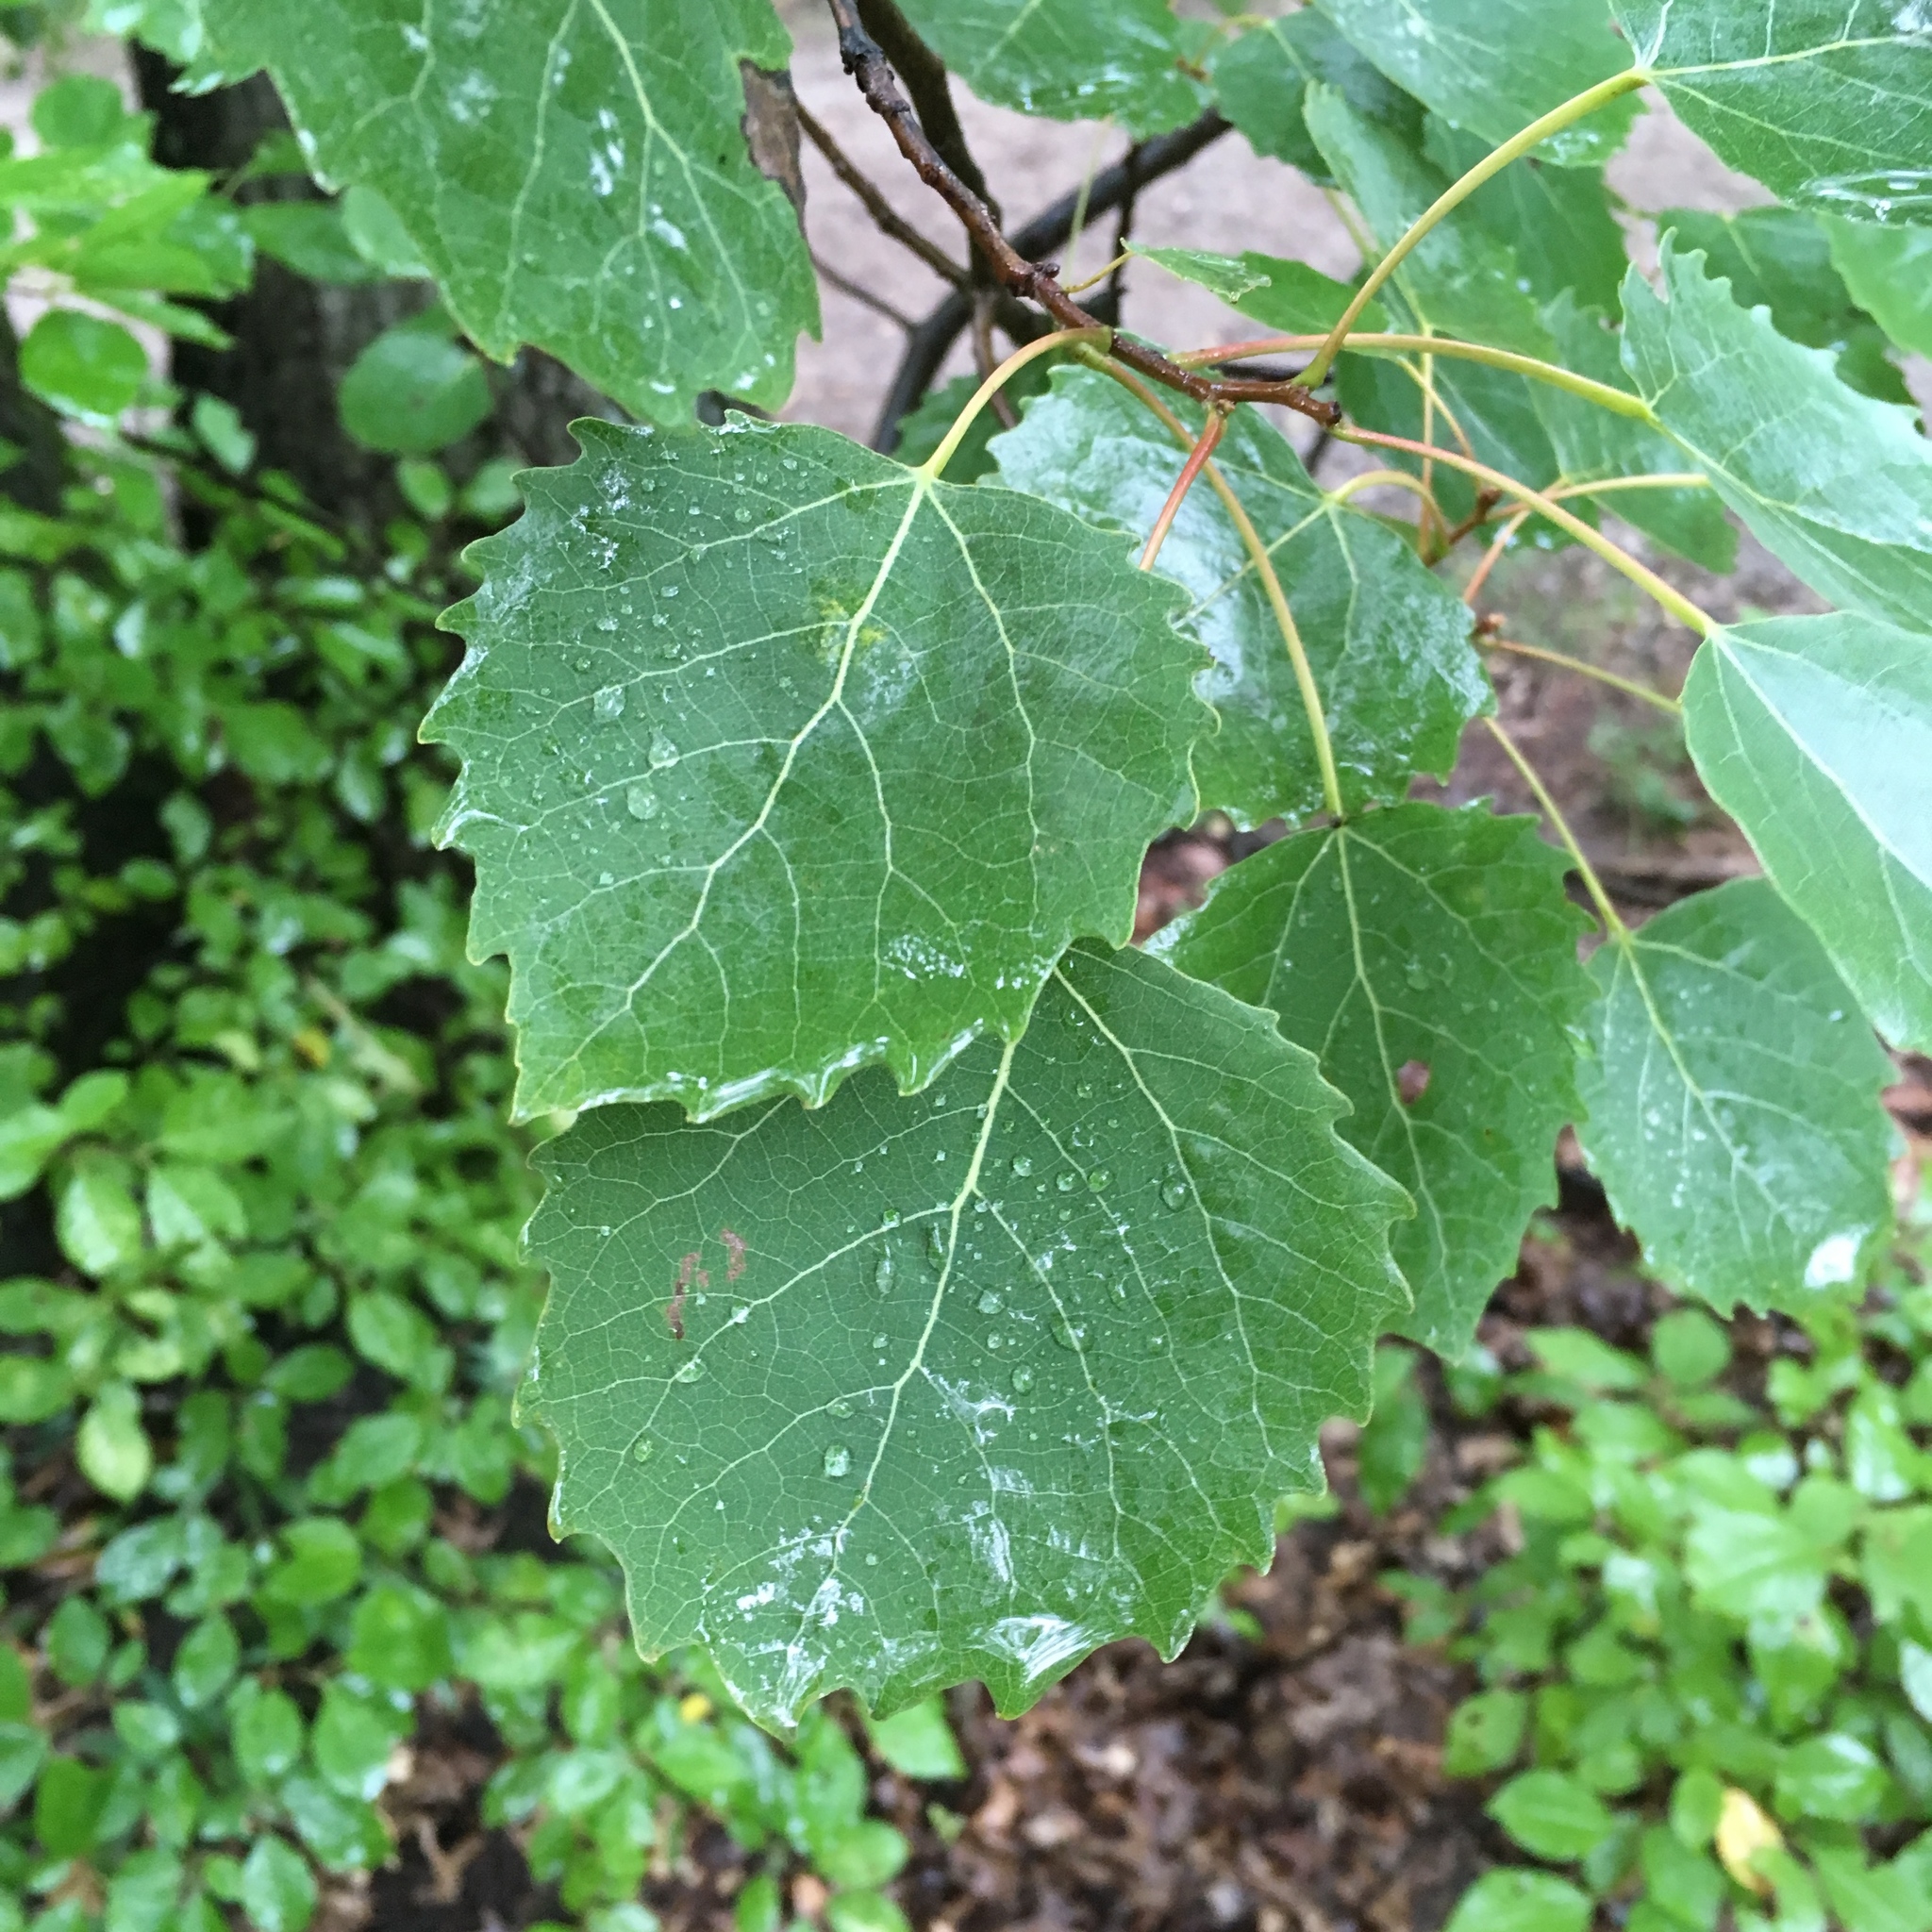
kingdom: Plantae
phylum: Tracheophyta
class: Magnoliopsida
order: Malpighiales
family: Salicaceae
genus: Populus
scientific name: Populus grandidentata
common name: Bigtooth aspen
